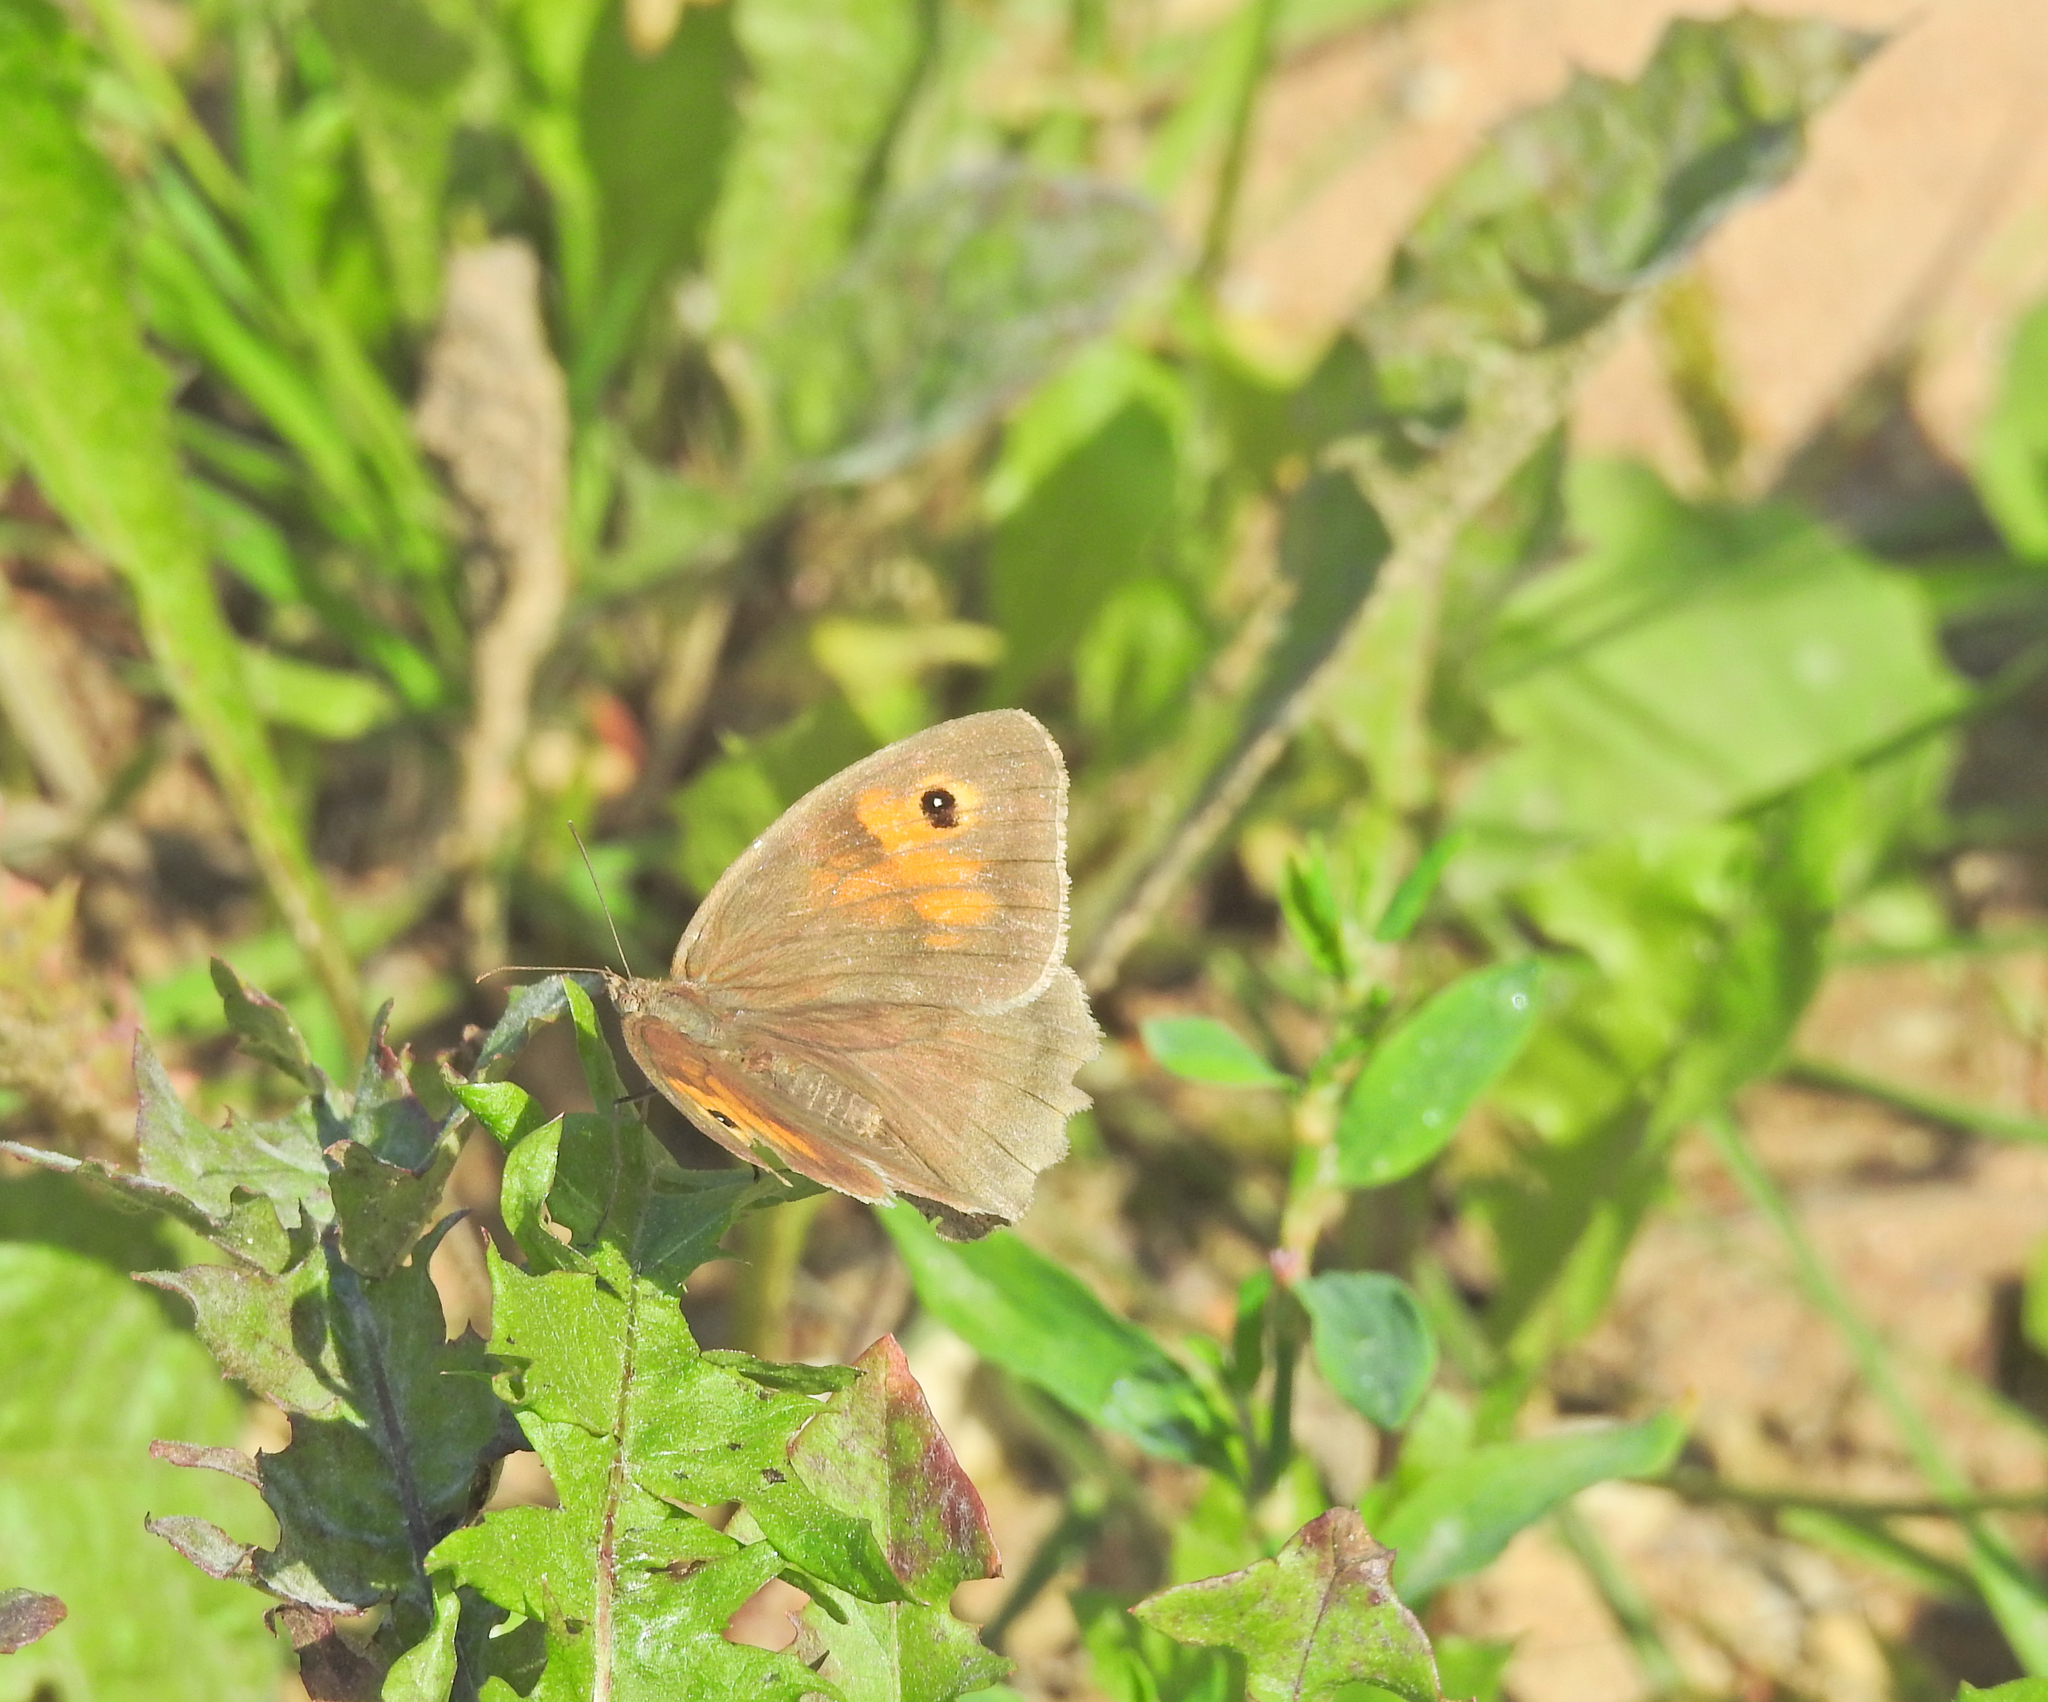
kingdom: Animalia
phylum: Arthropoda
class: Insecta
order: Lepidoptera
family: Nymphalidae
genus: Maniola
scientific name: Maniola jurtina
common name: Meadow brown
